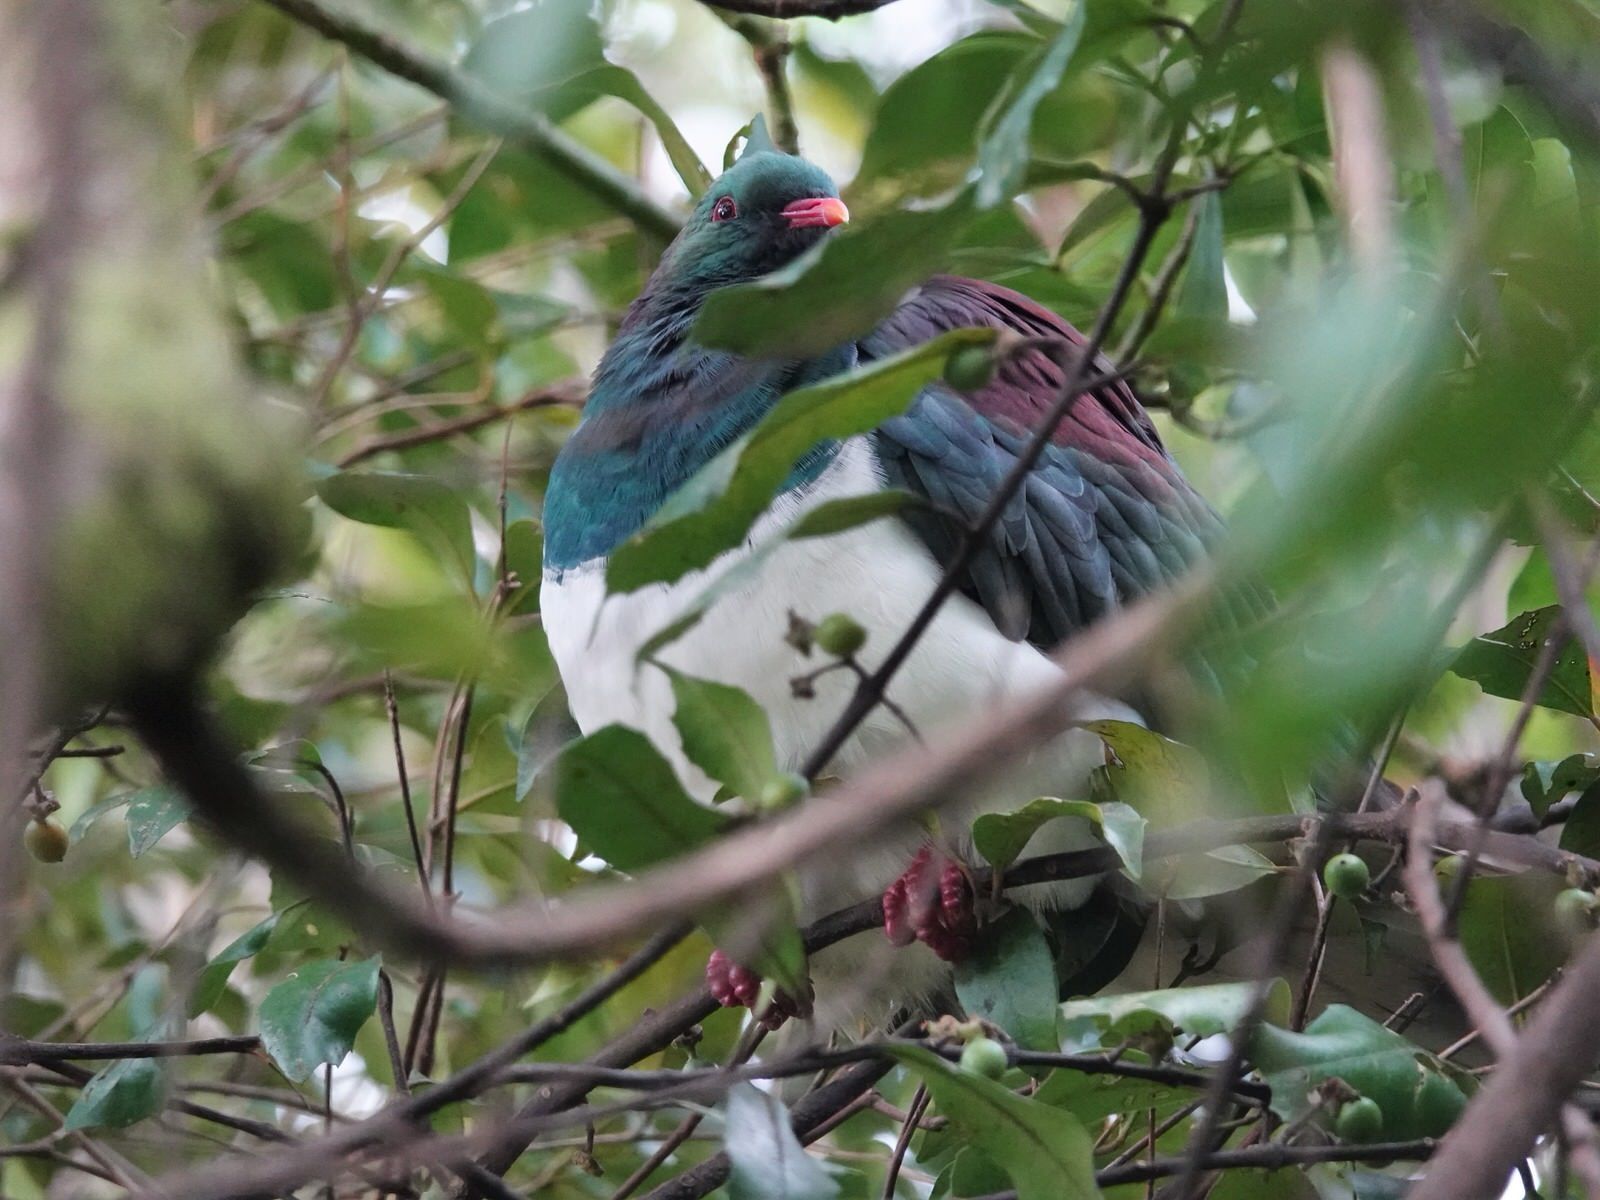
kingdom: Animalia
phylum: Chordata
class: Aves
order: Columbiformes
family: Columbidae
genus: Hemiphaga
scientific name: Hemiphaga novaeseelandiae
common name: New zealand pigeon
